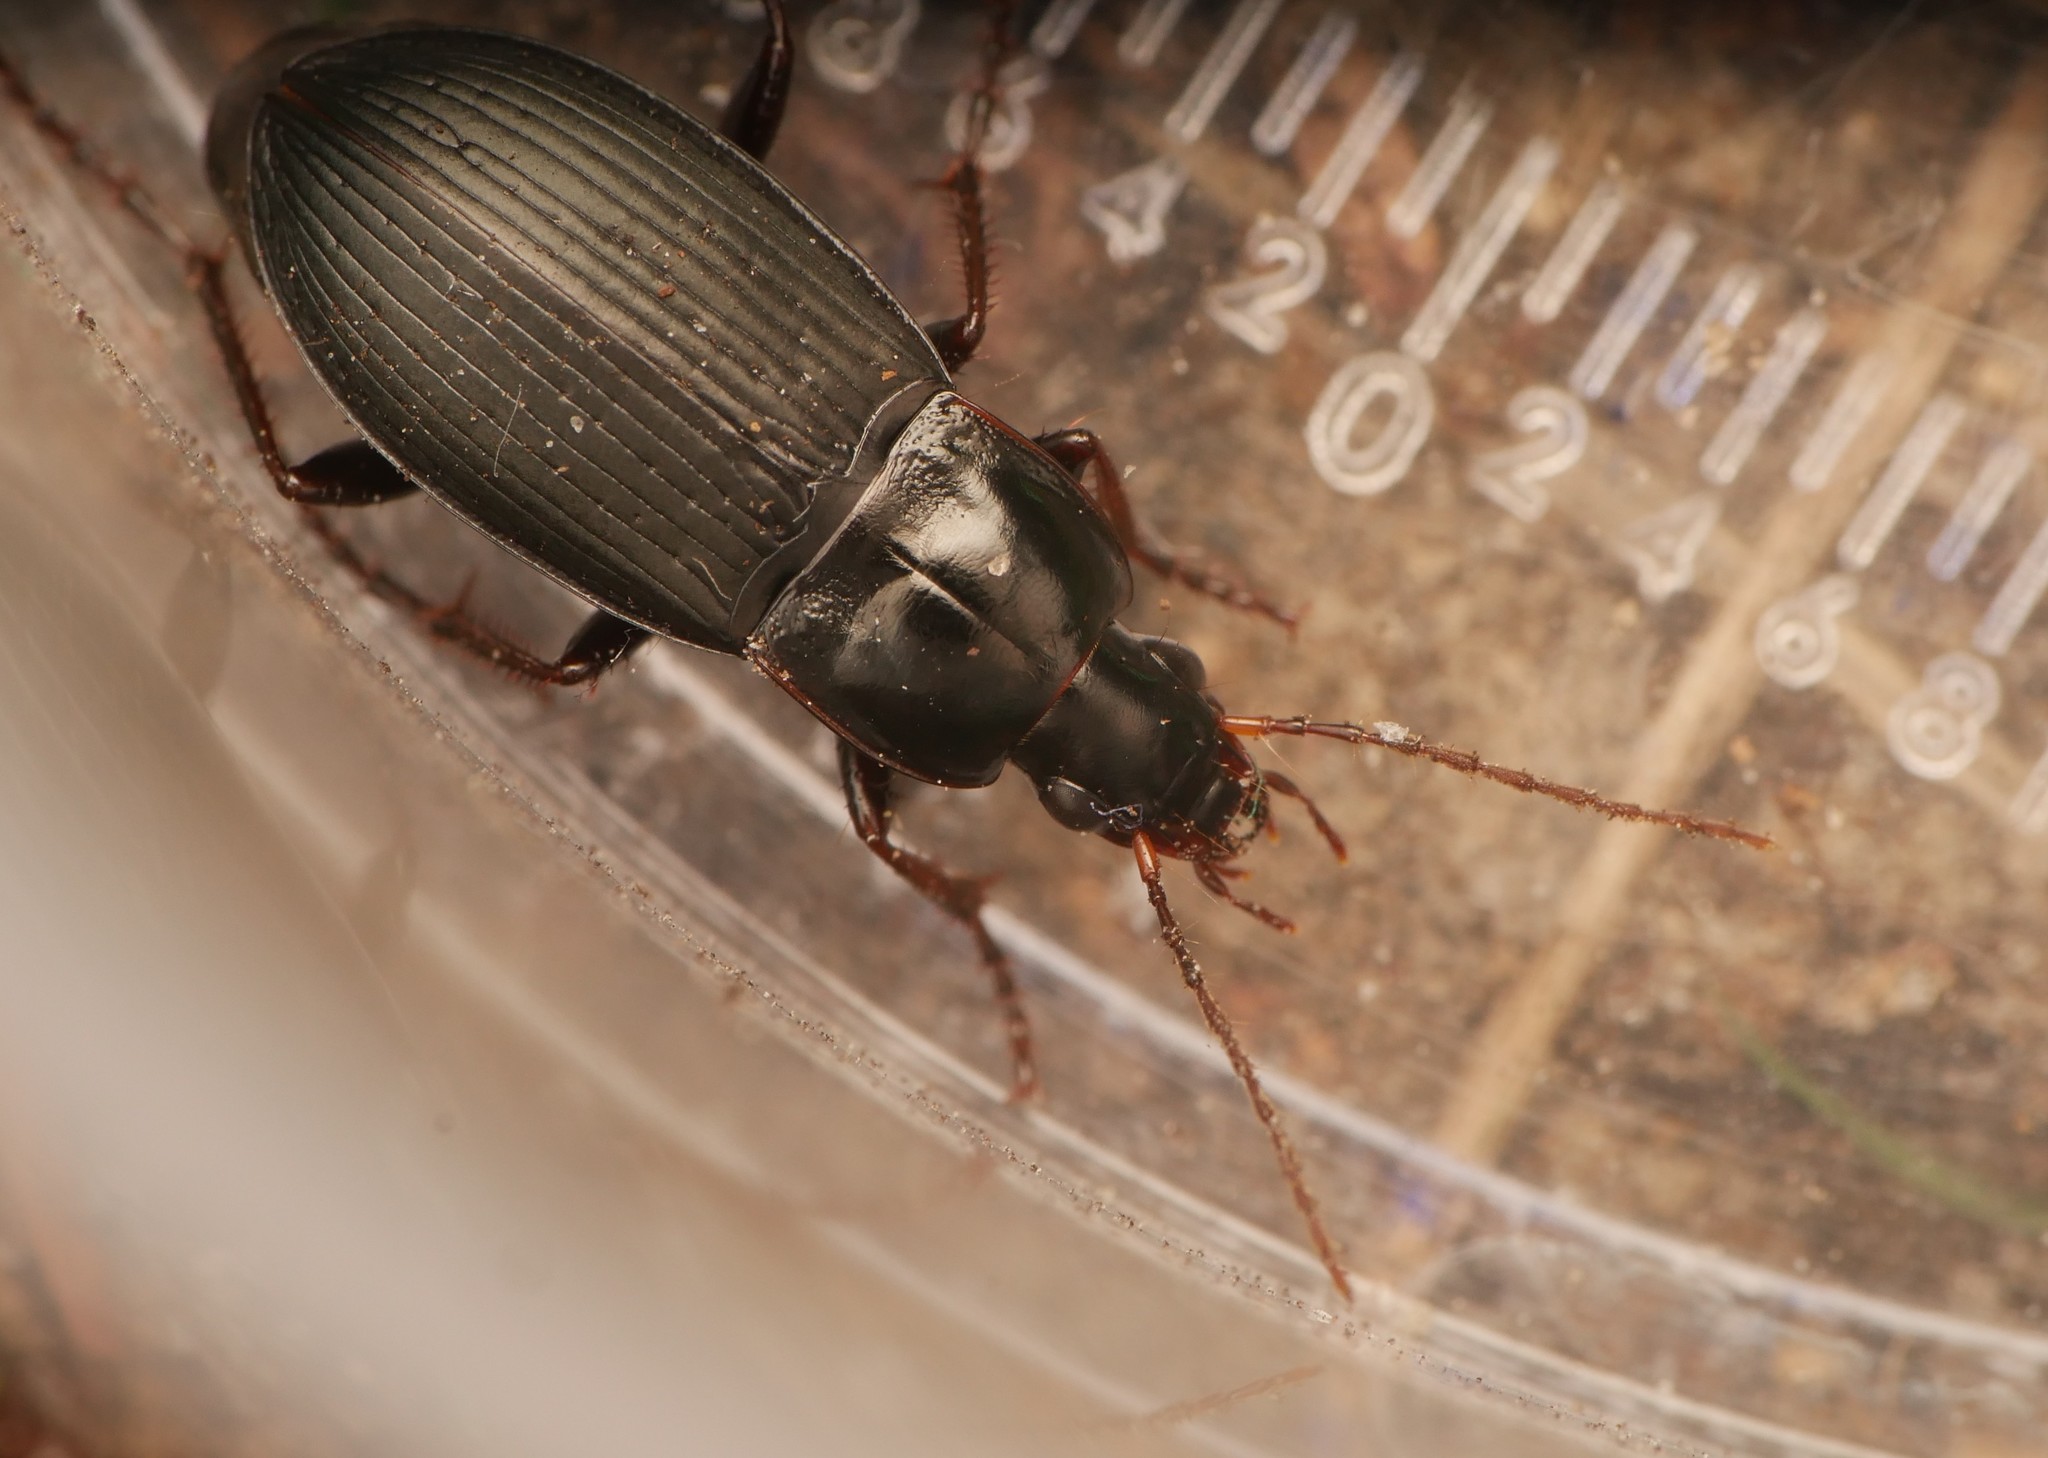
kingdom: Animalia
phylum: Arthropoda
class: Insecta
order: Coleoptera
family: Carabidae
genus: Calathus
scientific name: Calathus fuscipes
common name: Dark-footed harp ground beetle
